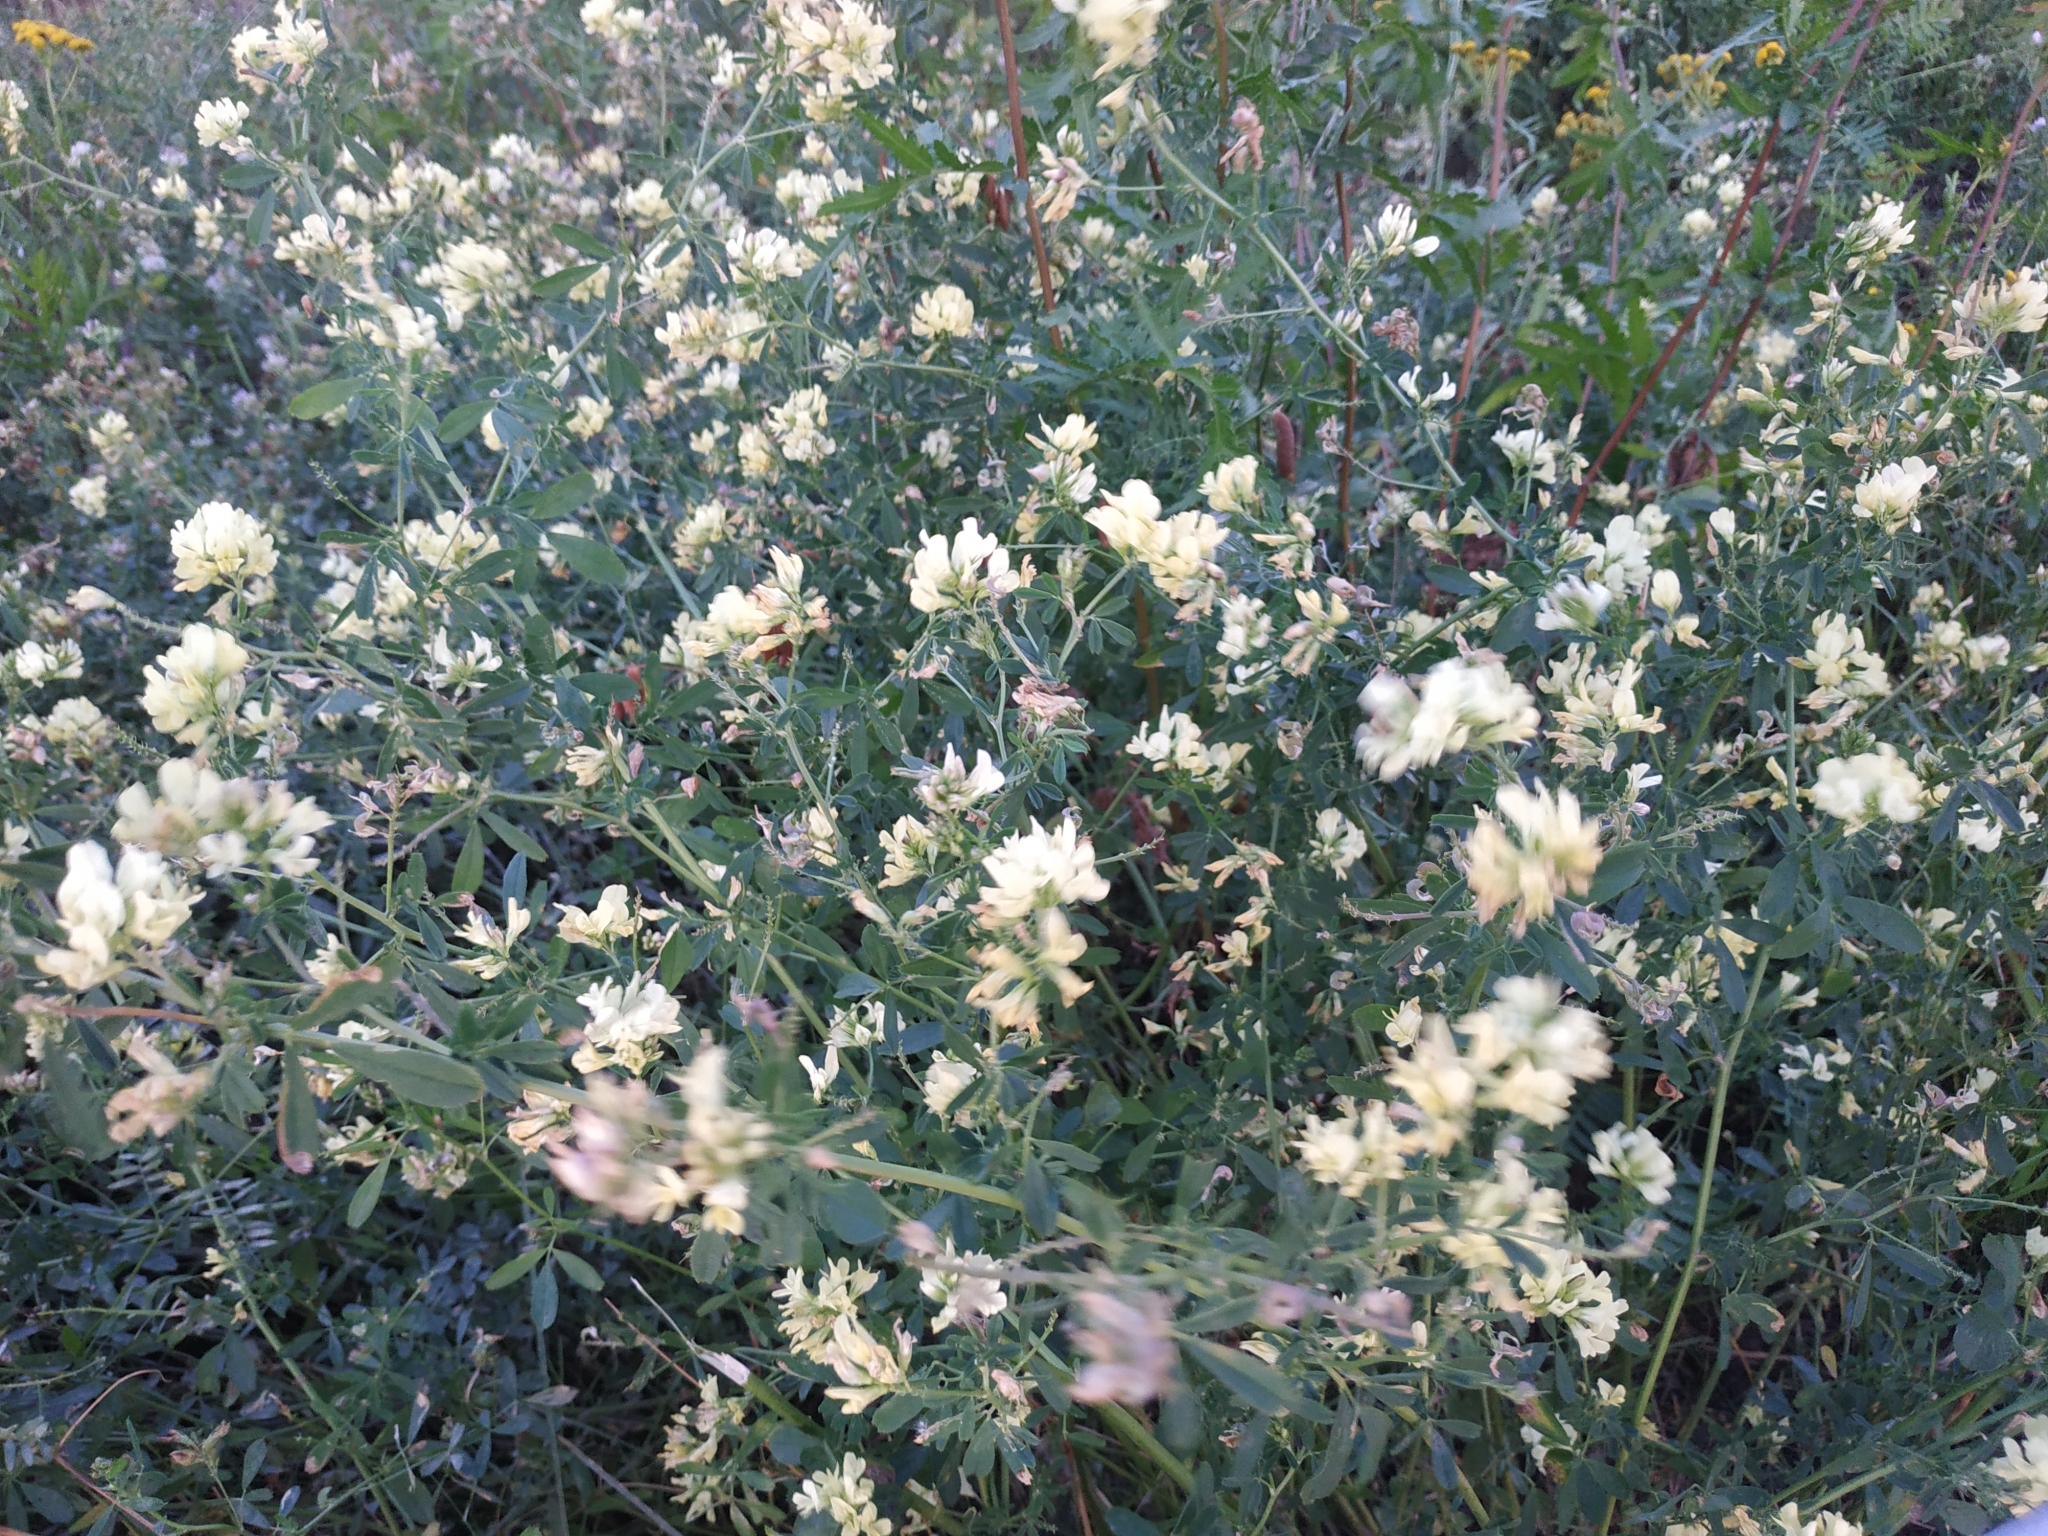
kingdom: Plantae
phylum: Tracheophyta
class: Magnoliopsida
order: Fabales
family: Fabaceae
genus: Medicago
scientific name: Medicago varia
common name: Sand lucerne
